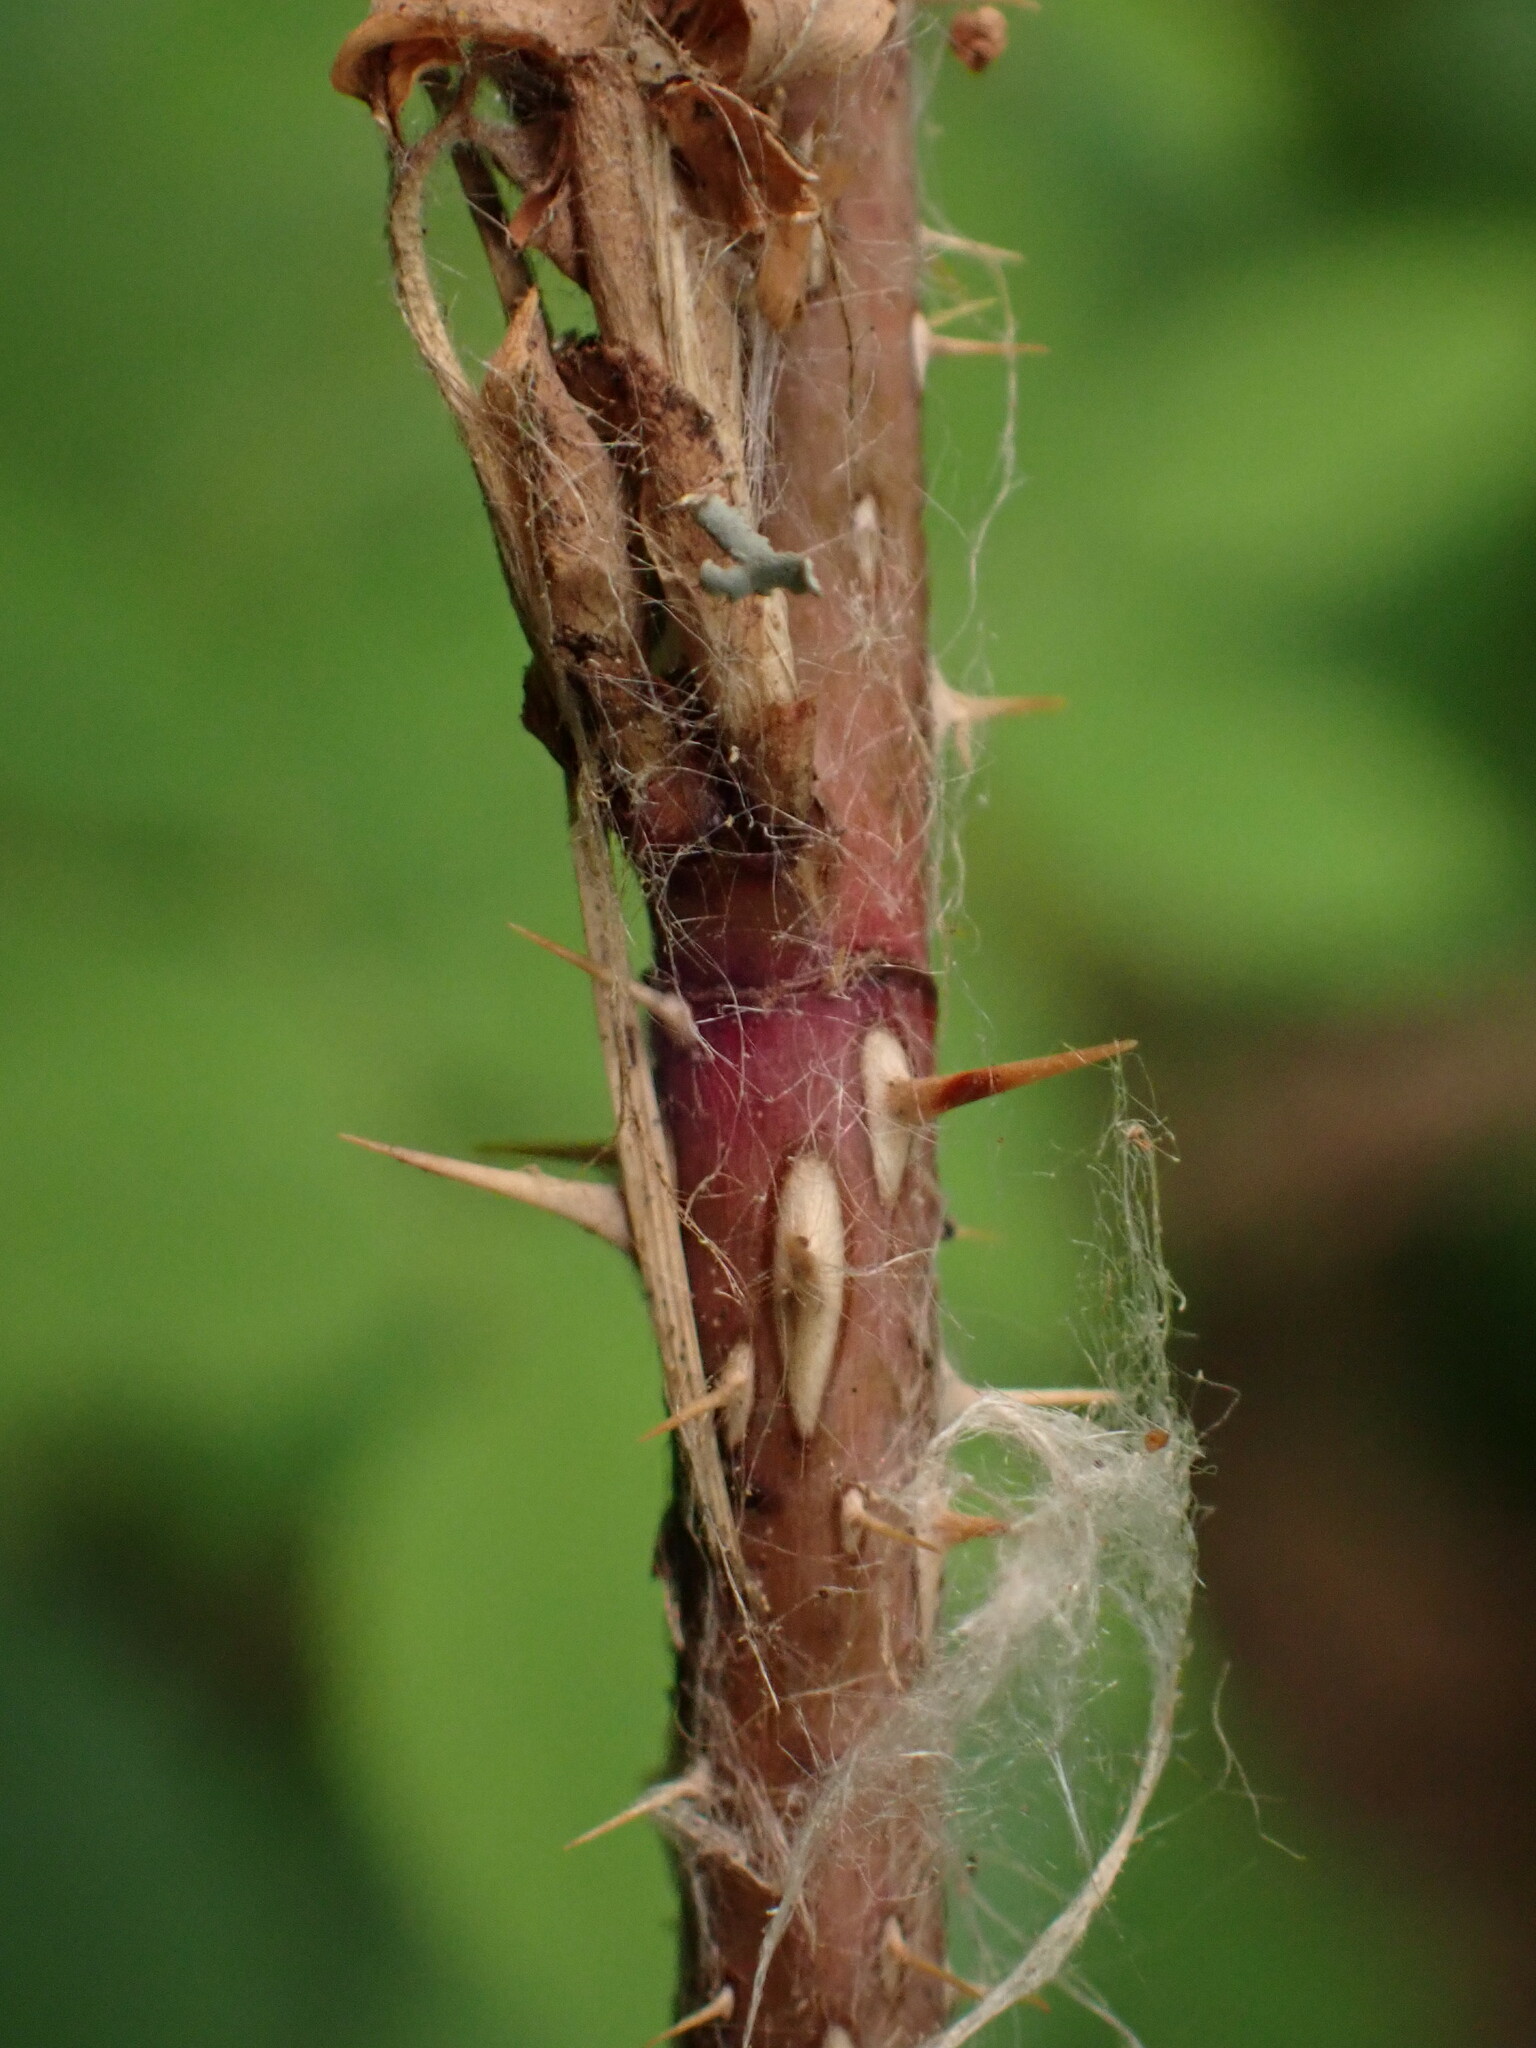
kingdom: Plantae
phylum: Tracheophyta
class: Magnoliopsida
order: Rosales
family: Rosaceae
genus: Rosa
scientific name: Rosa woodsii
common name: Woods's rose
